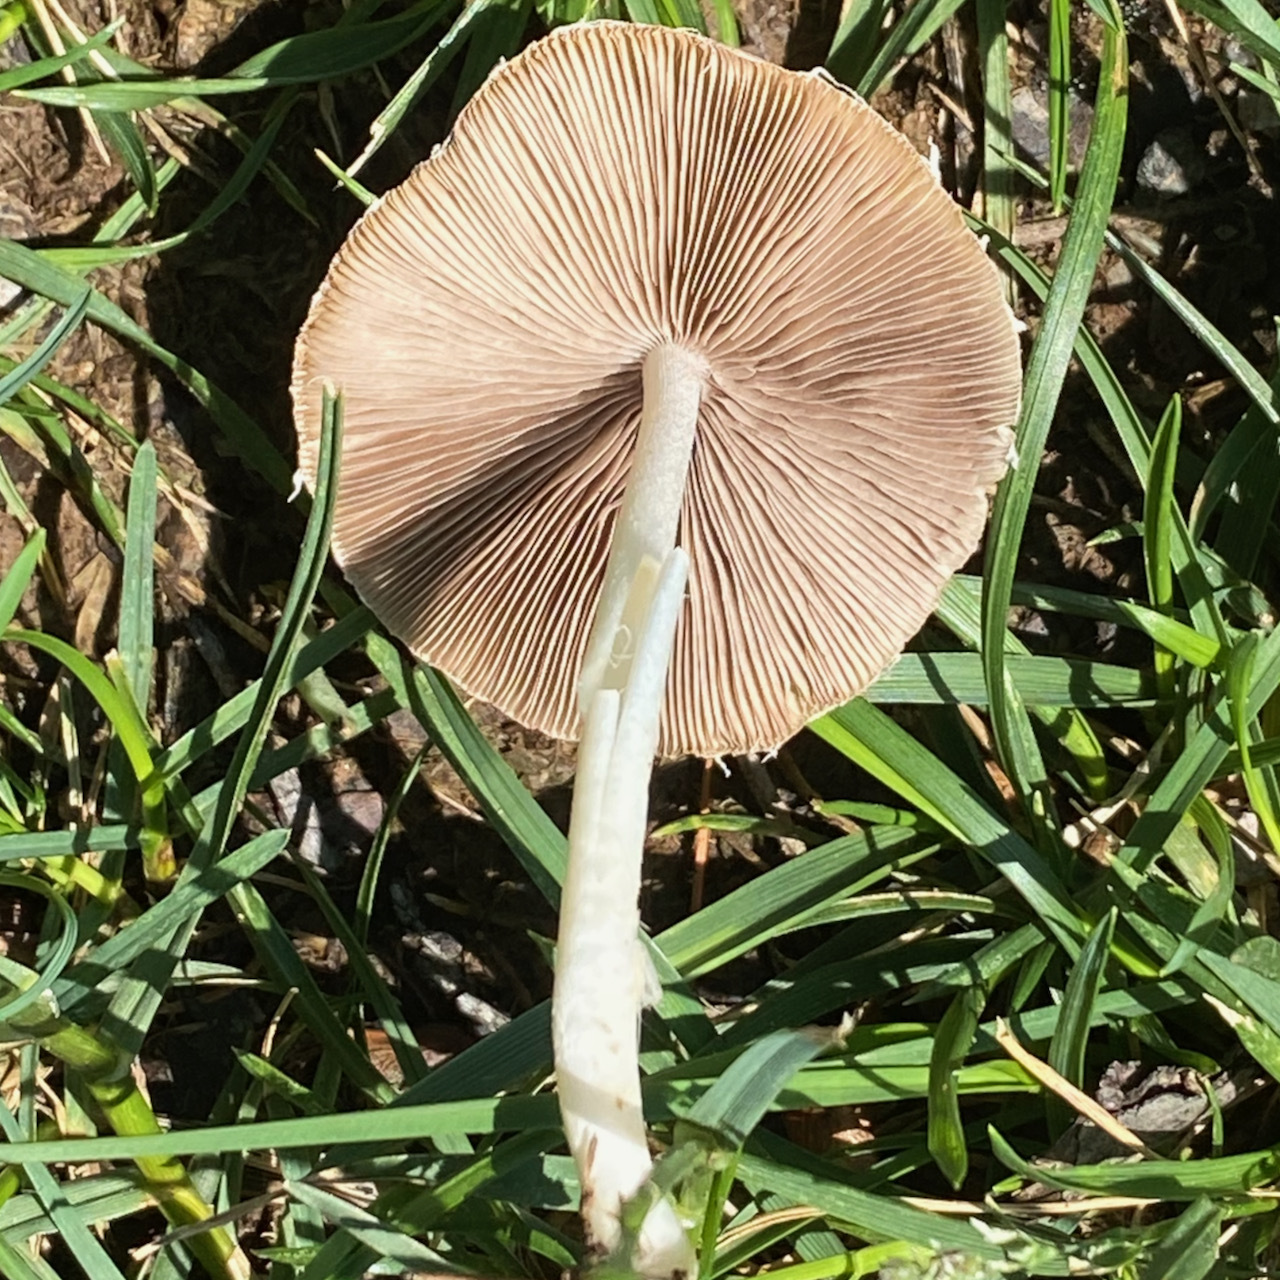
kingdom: Fungi
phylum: Basidiomycota
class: Agaricomycetes
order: Agaricales
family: Psathyrellaceae
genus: Candolleomyces
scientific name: Candolleomyces candolleanus
